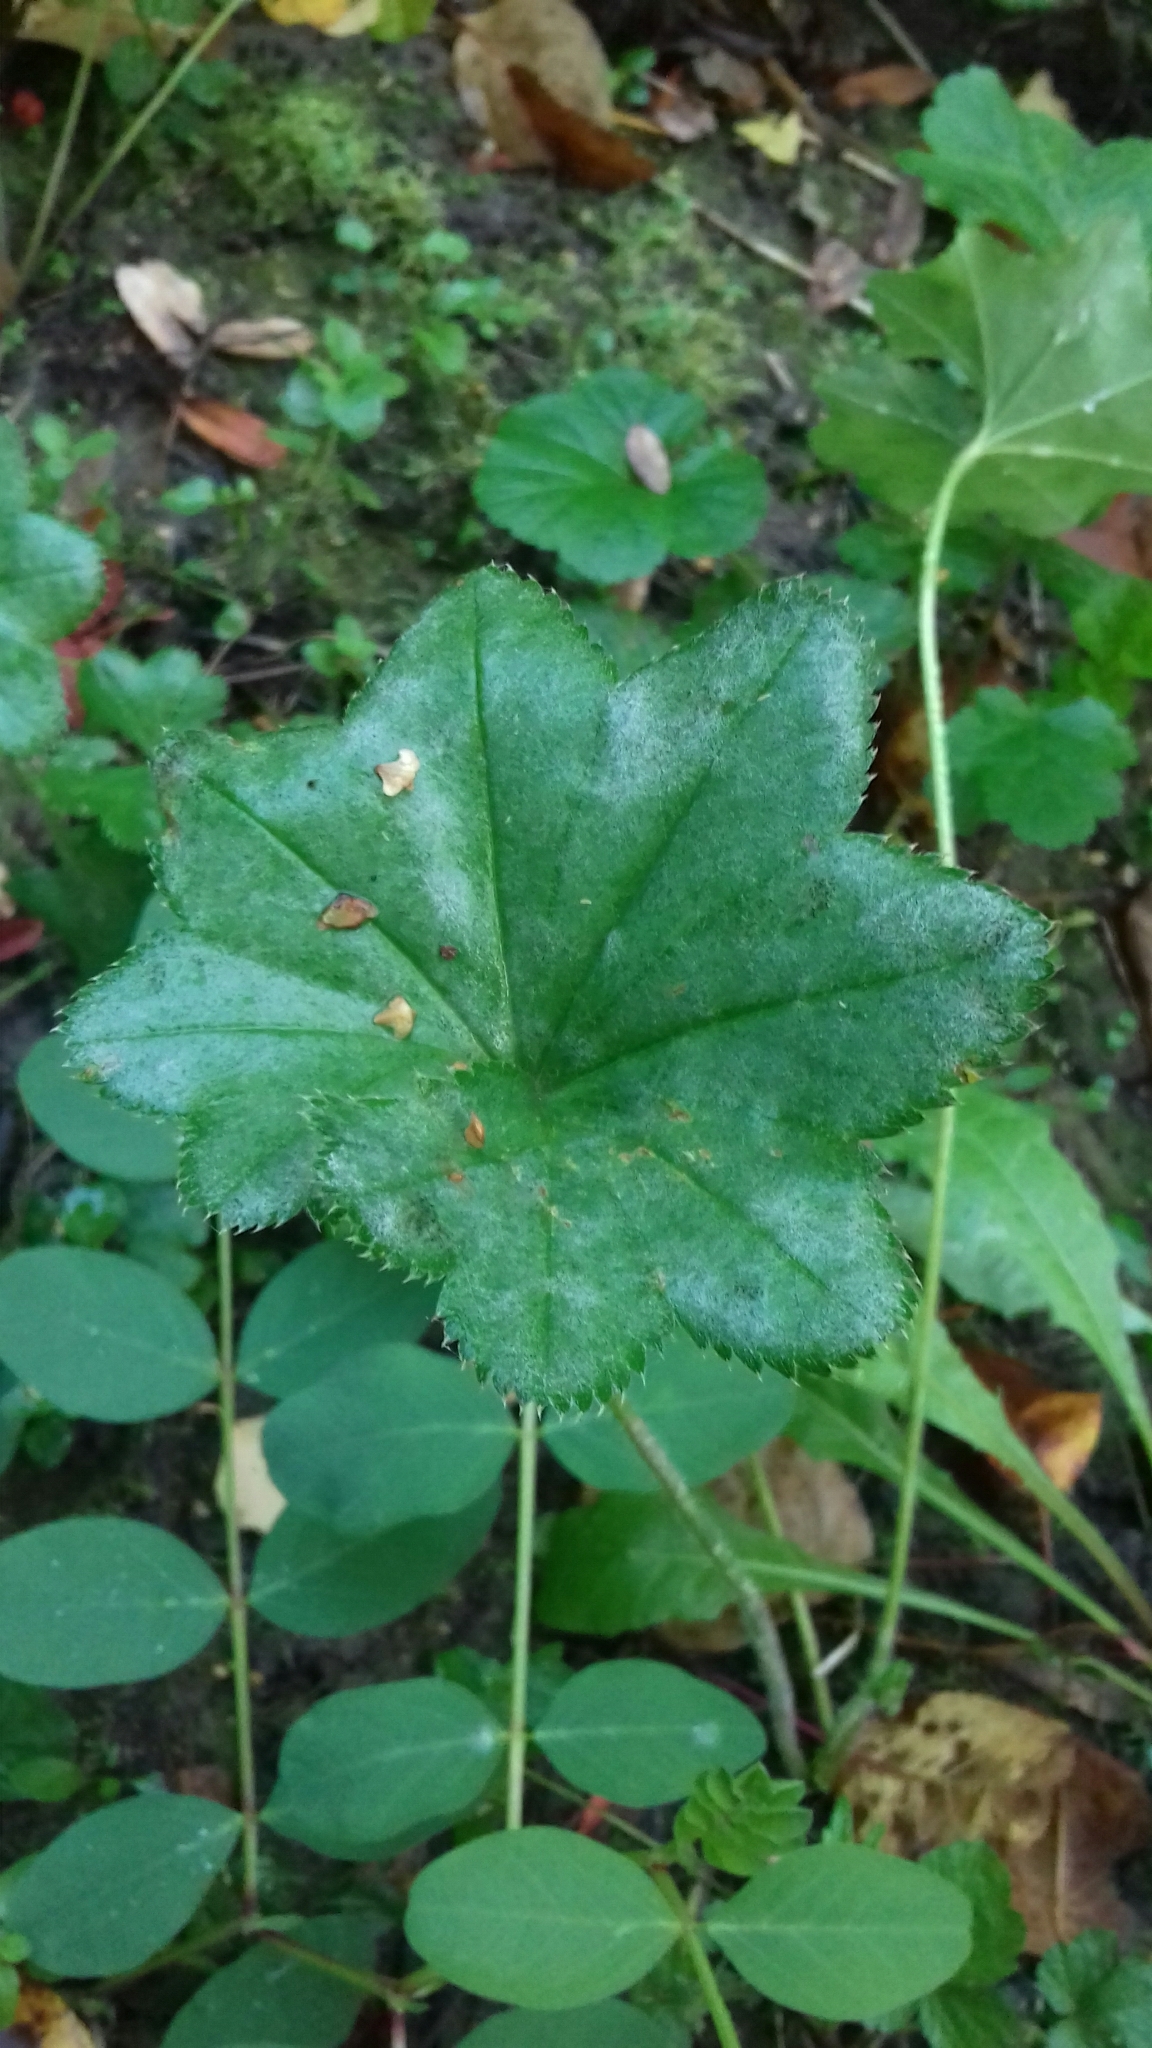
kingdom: Plantae
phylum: Tracheophyta
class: Magnoliopsida
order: Rosales
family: Rosaceae
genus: Alchemilla
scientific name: Alchemilla
